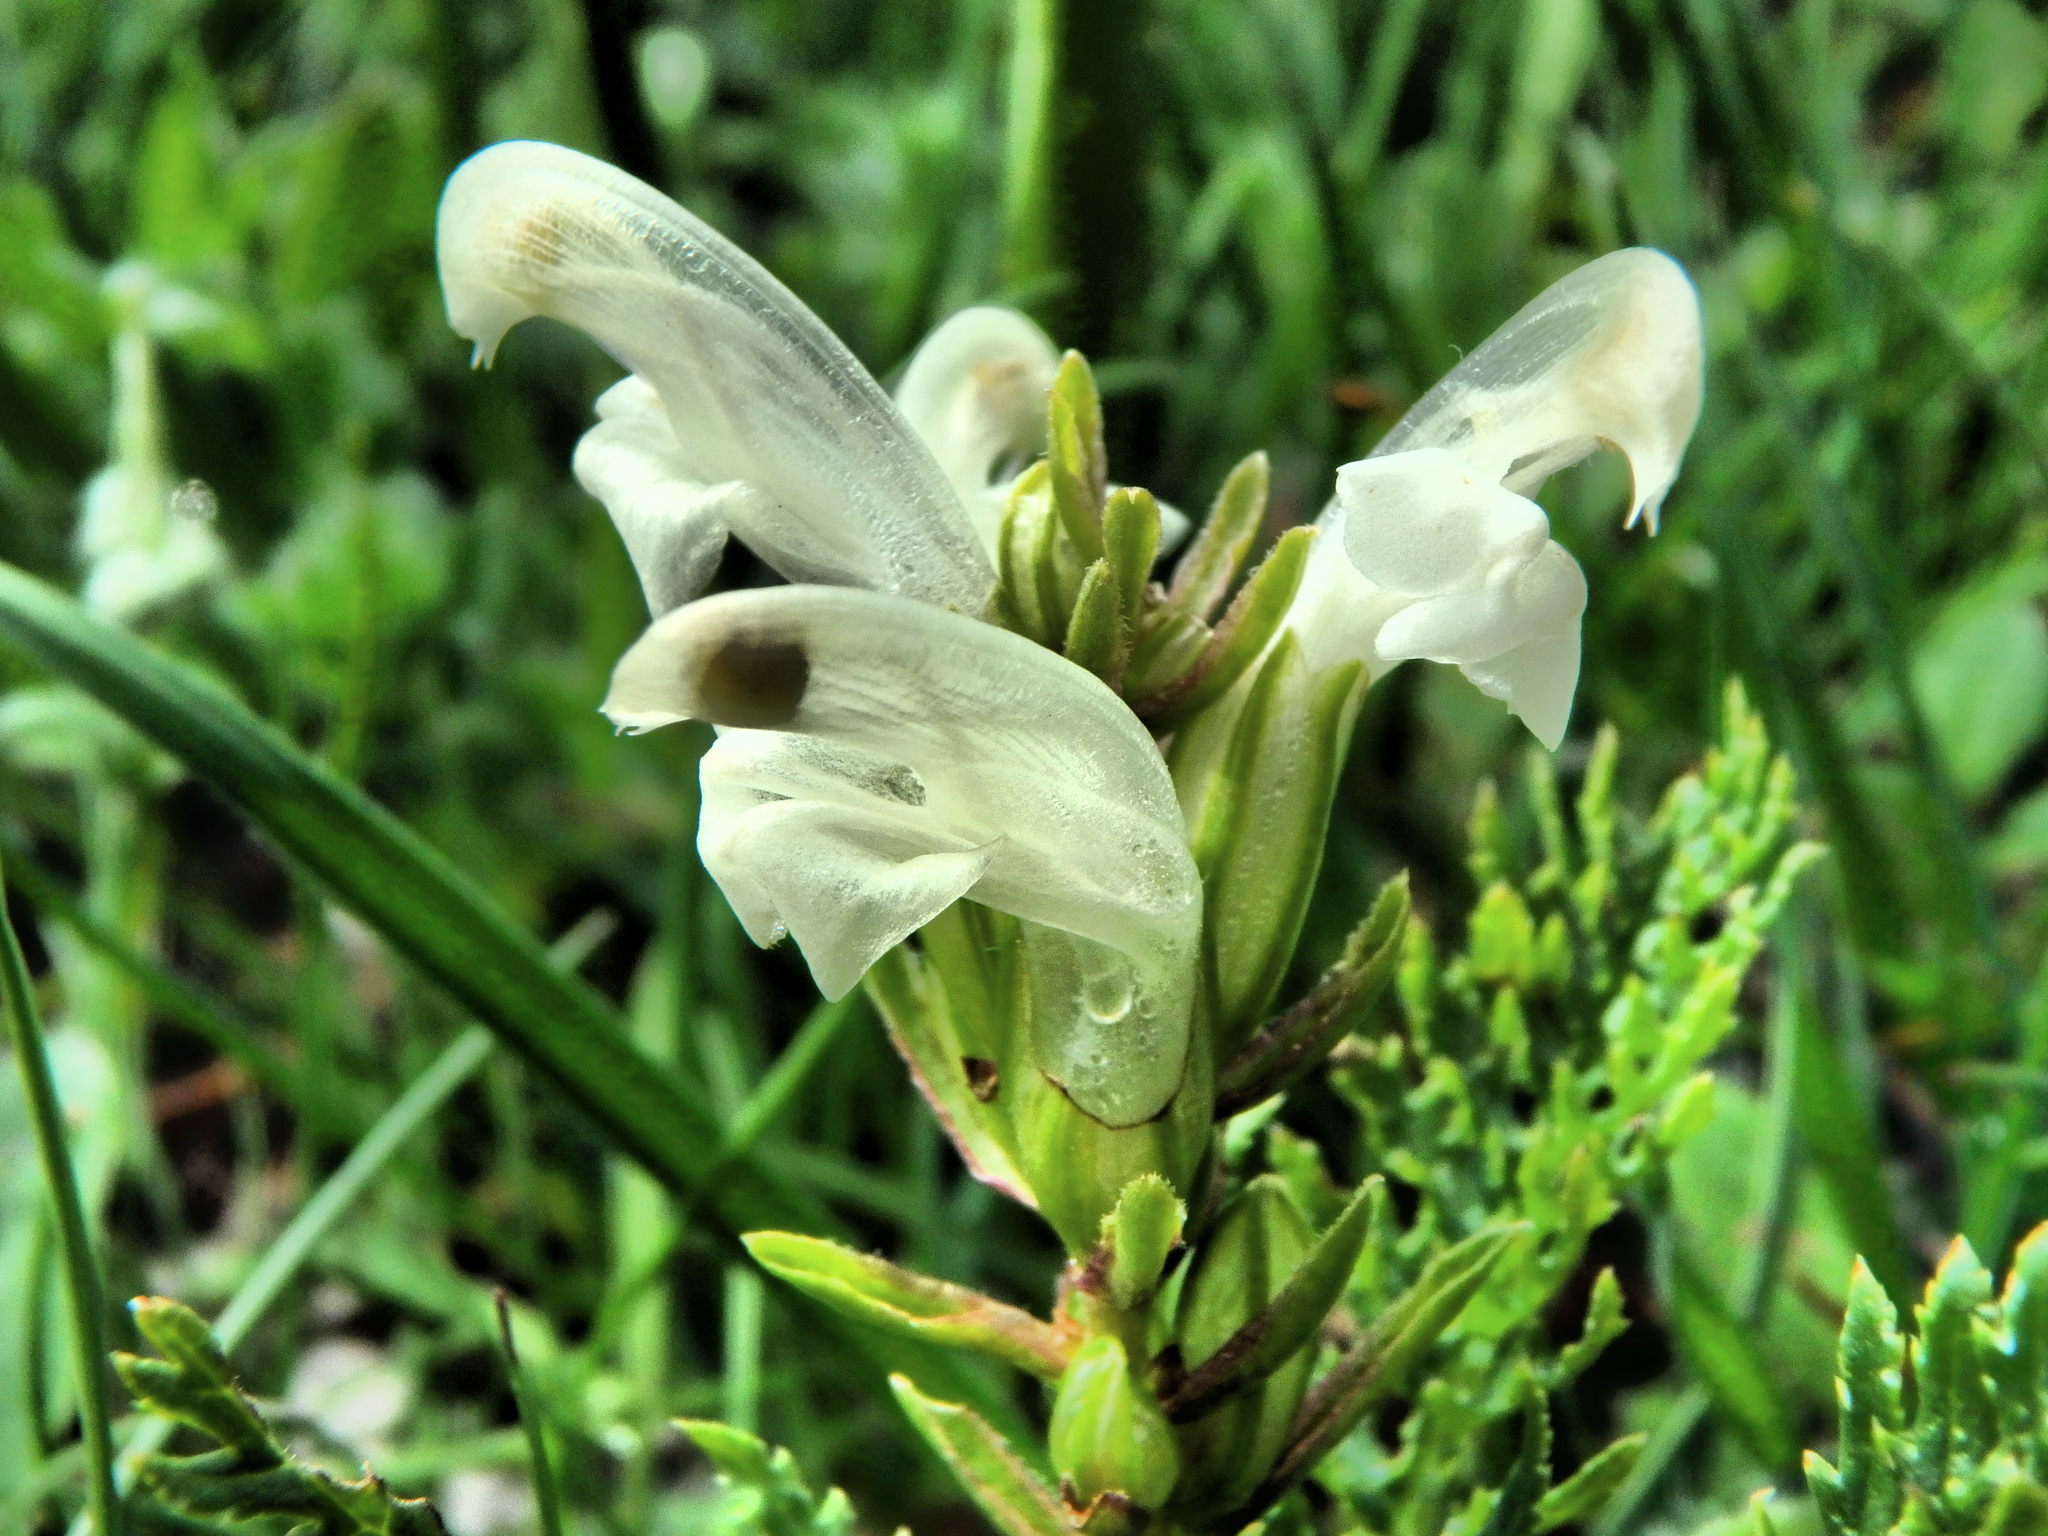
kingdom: Plantae
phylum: Tracheophyta
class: Magnoliopsida
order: Lamiales
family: Orobanchaceae
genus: Pedicularis
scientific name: Pedicularis comosa
